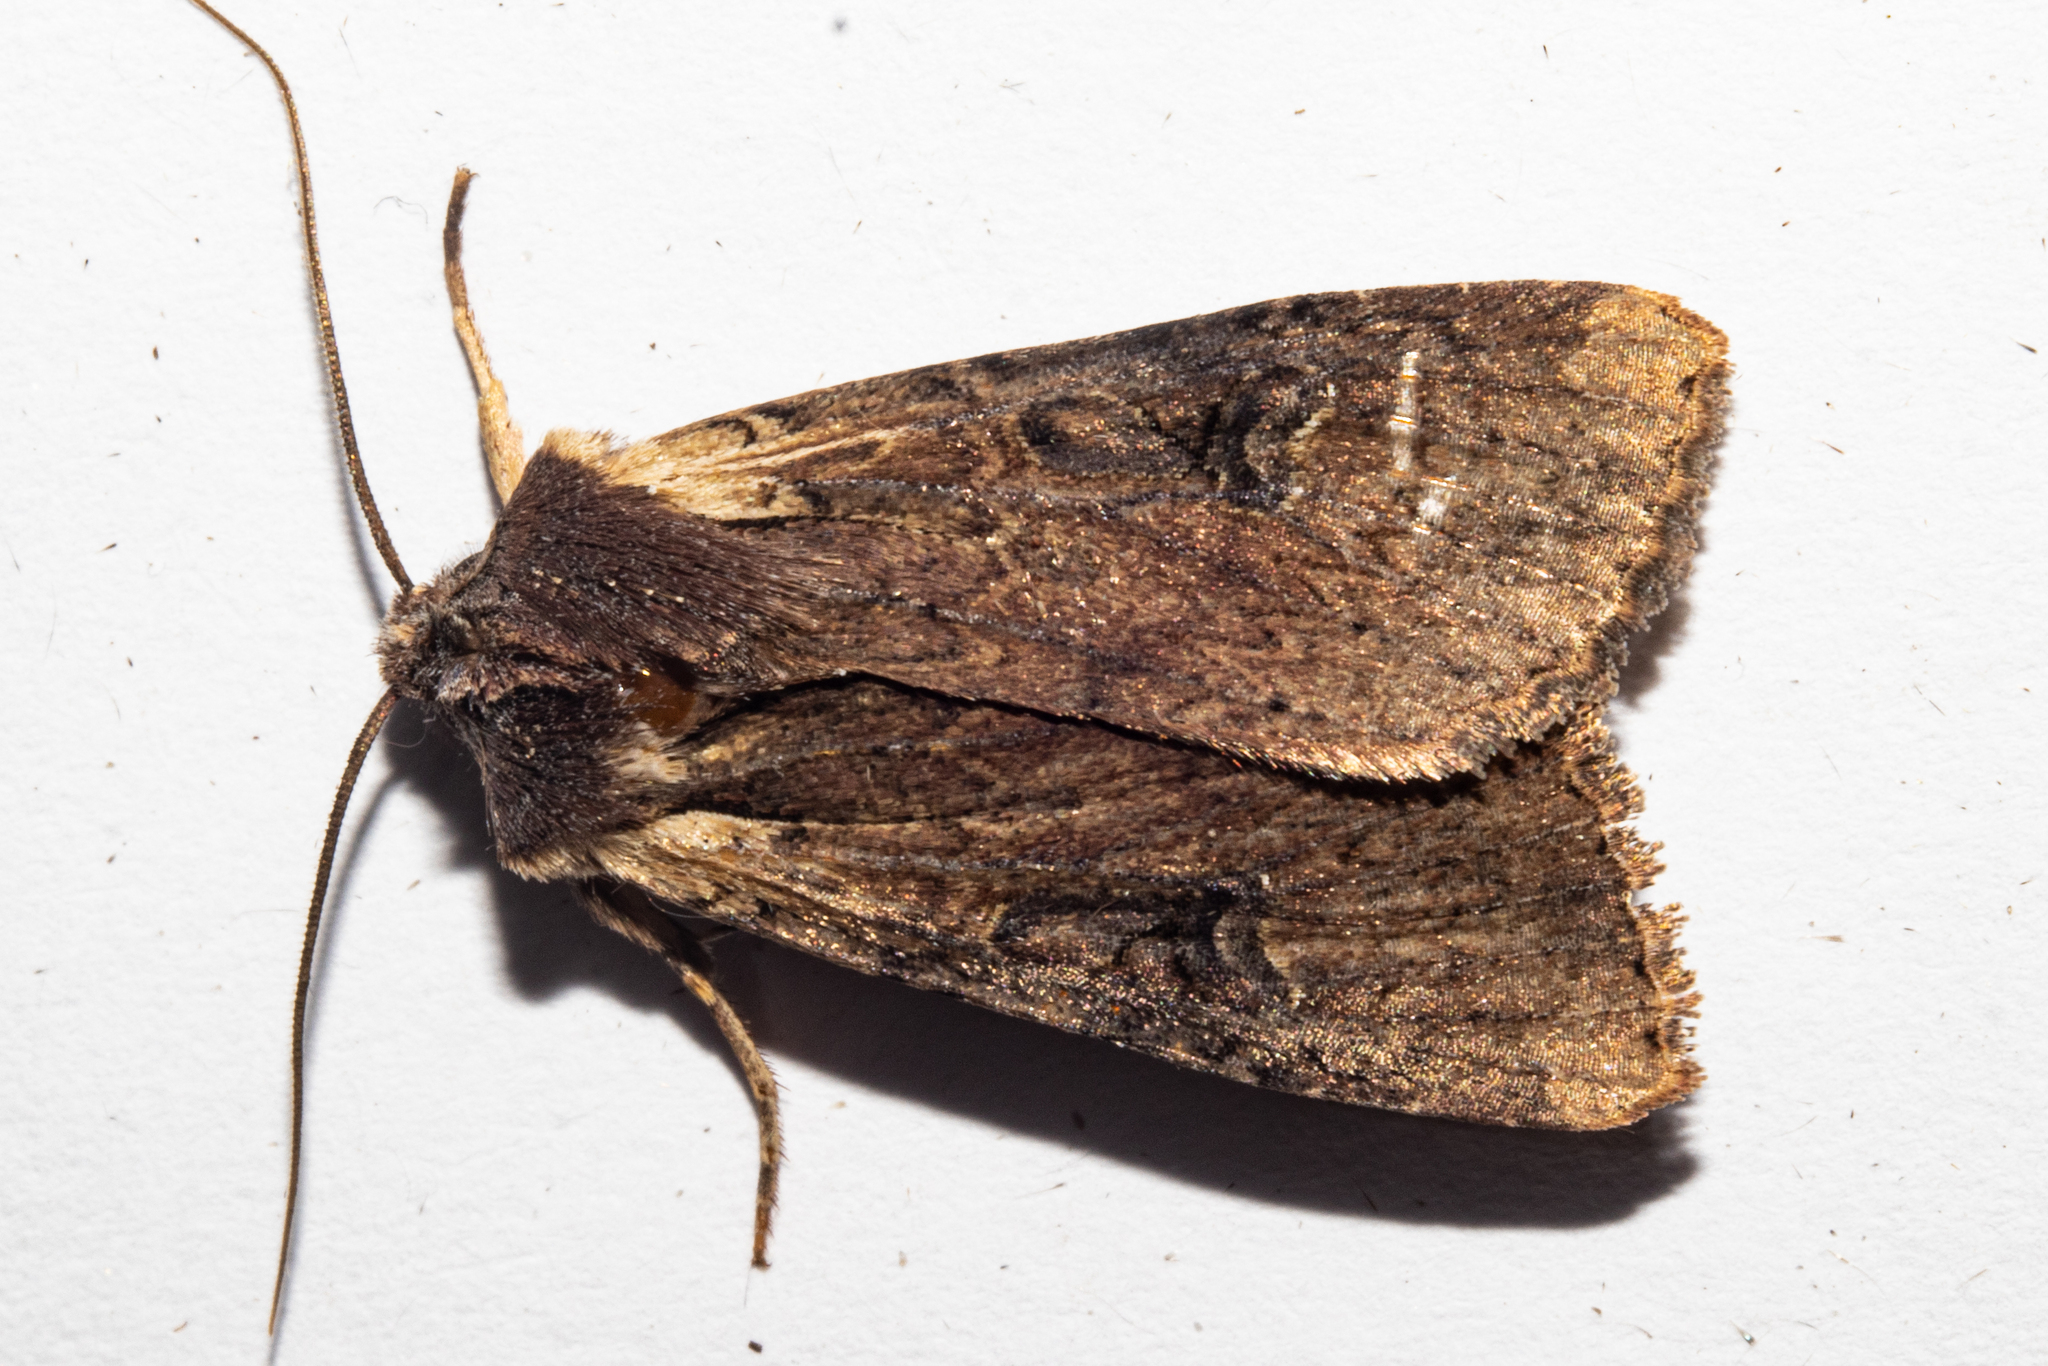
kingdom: Animalia
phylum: Arthropoda
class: Insecta
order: Lepidoptera
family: Noctuidae
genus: Ichneutica
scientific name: Ichneutica omoplaca
